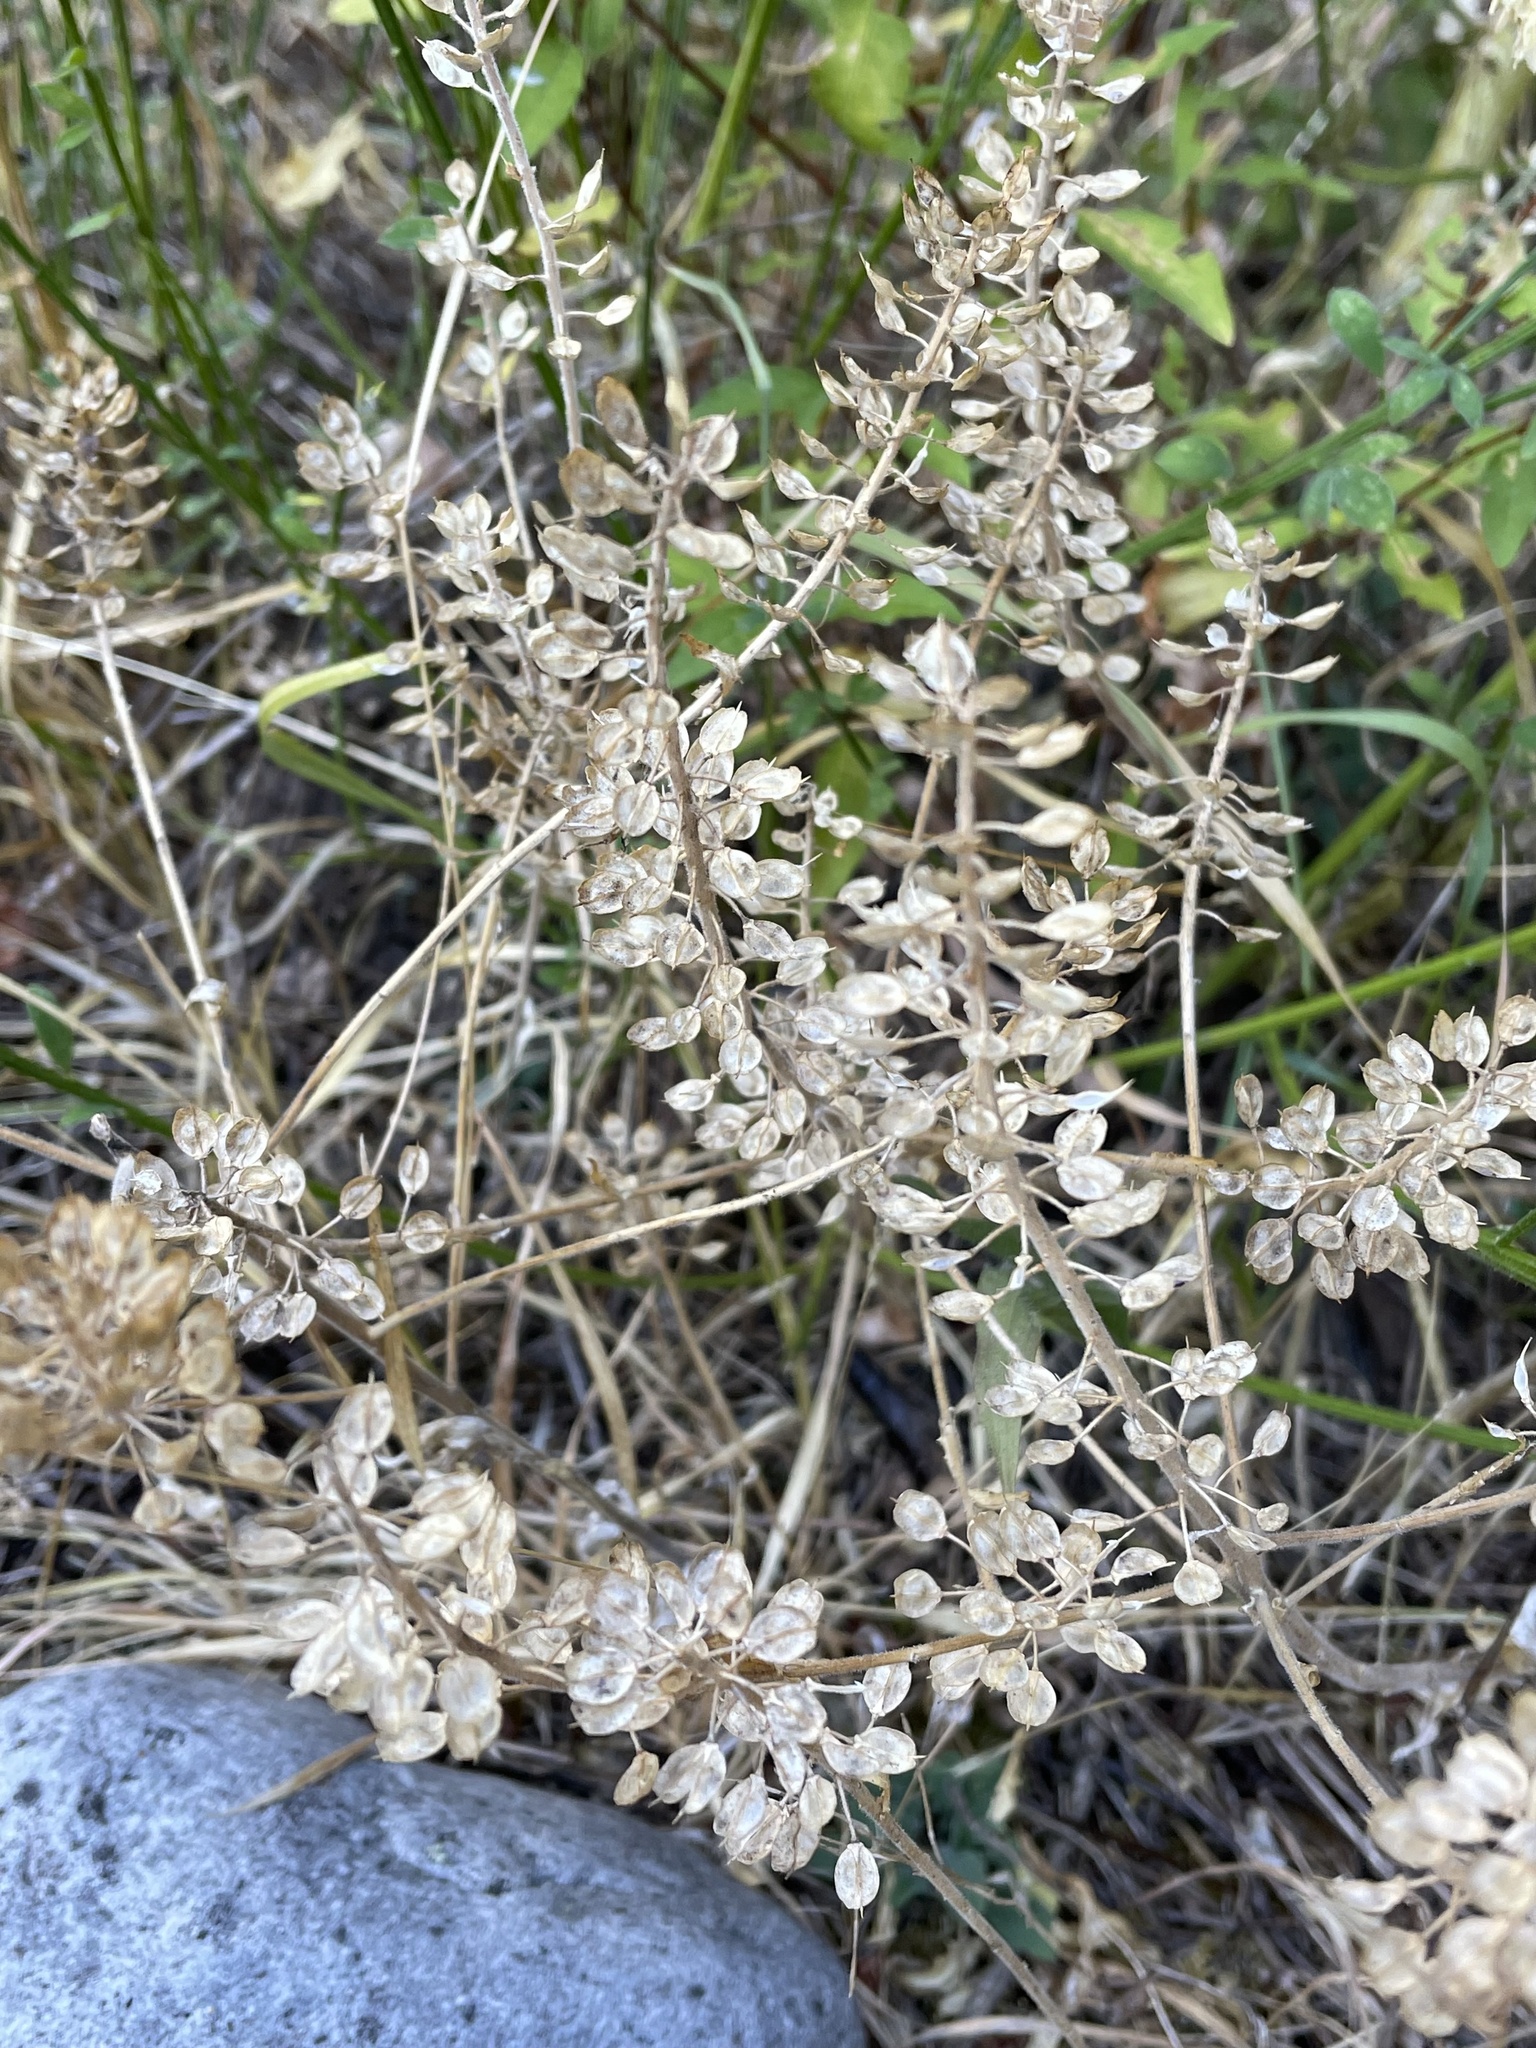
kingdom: Plantae
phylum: Tracheophyta
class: Magnoliopsida
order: Brassicales
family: Brassicaceae
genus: Lepidium
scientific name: Lepidium campestre
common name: Field pepperwort
